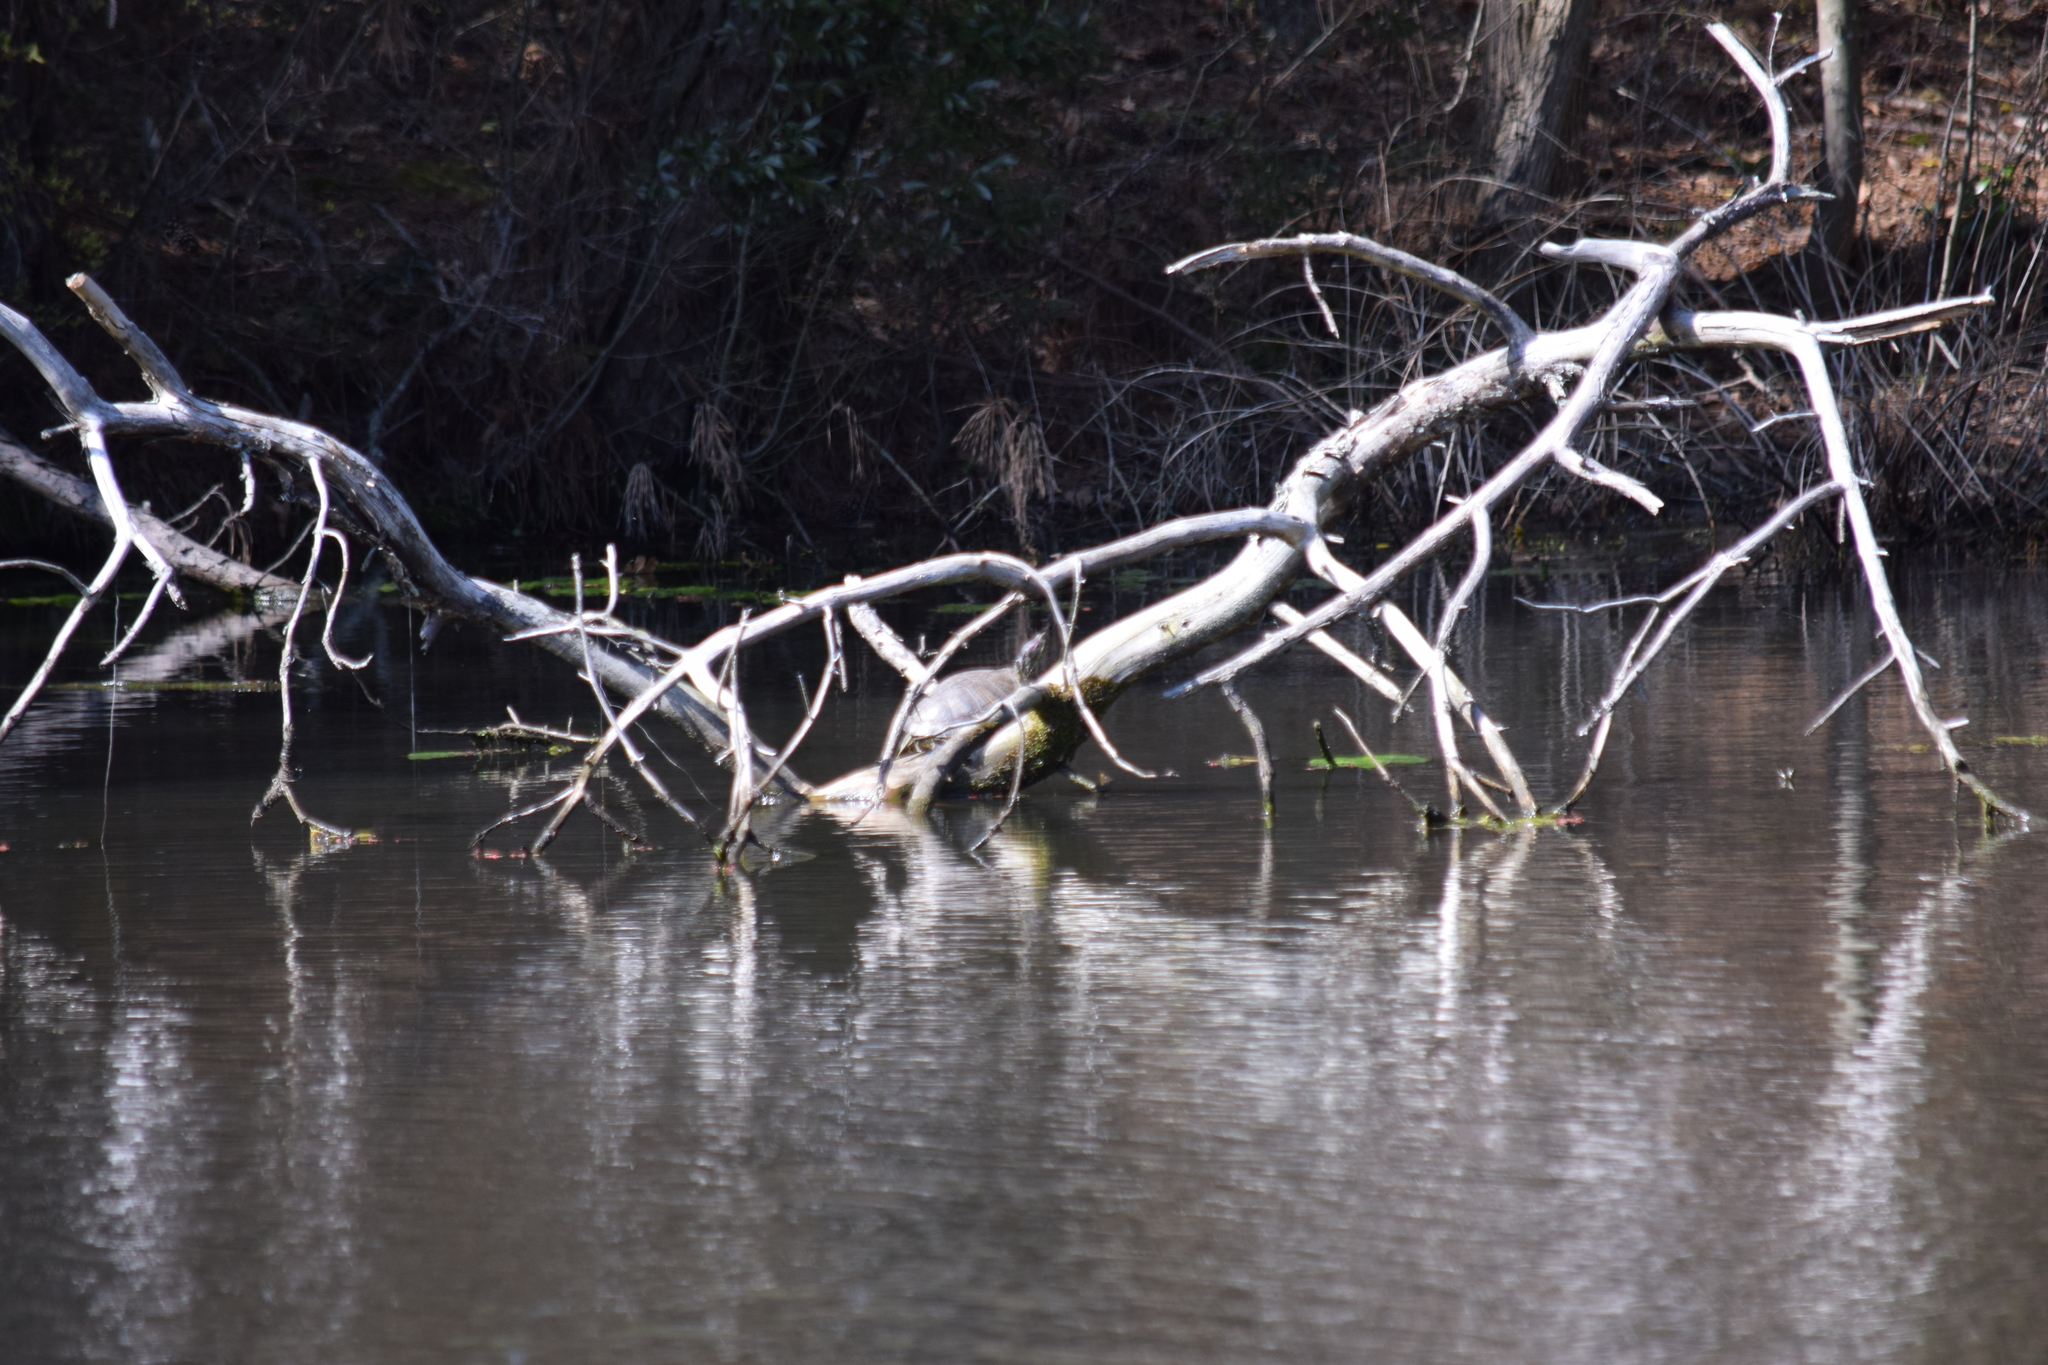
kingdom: Animalia
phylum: Chordata
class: Testudines
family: Emydidae
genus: Trachemys
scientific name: Trachemys scripta
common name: Slider
